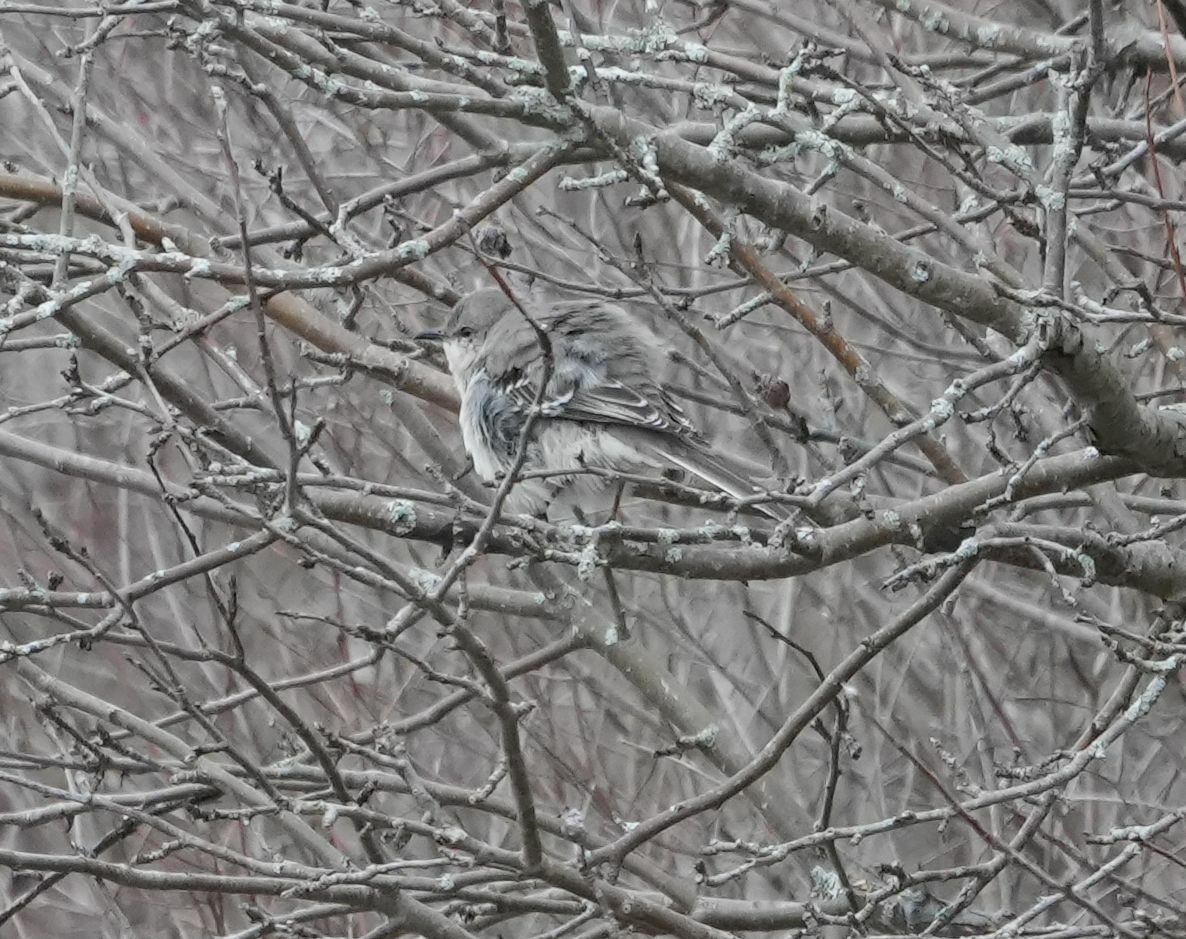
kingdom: Animalia
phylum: Chordata
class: Aves
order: Passeriformes
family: Mimidae
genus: Mimus
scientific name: Mimus polyglottos
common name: Northern mockingbird
